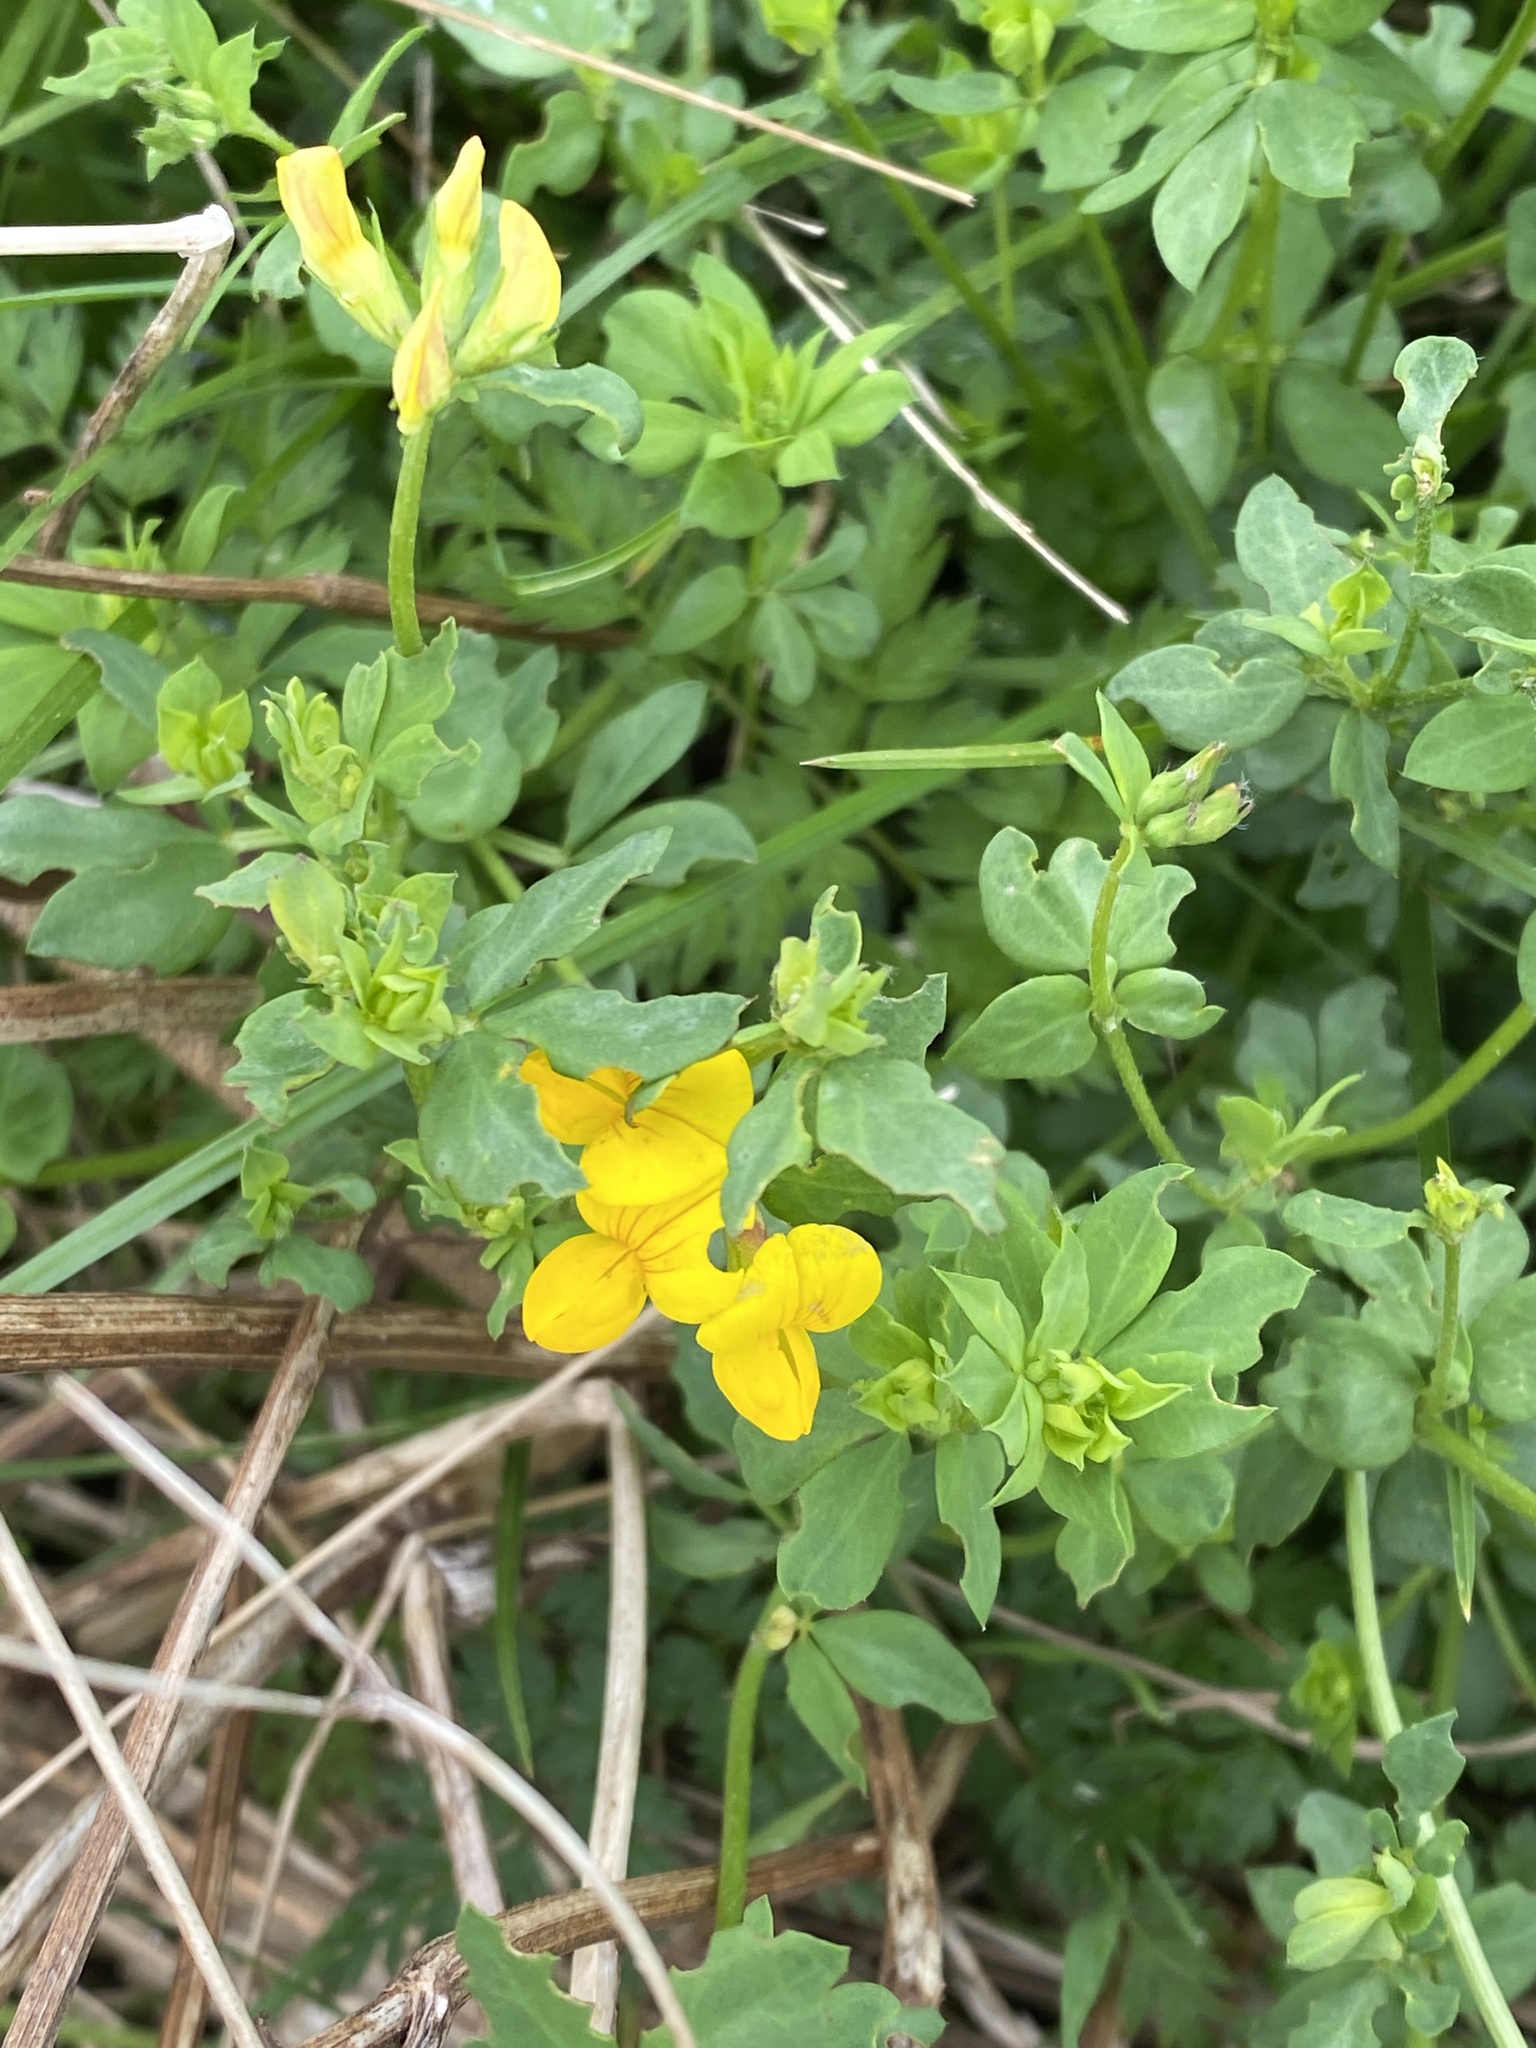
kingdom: Plantae
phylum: Tracheophyta
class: Magnoliopsida
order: Fabales
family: Fabaceae
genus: Lotus
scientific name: Lotus corniculatus
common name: Common bird's-foot-trefoil
